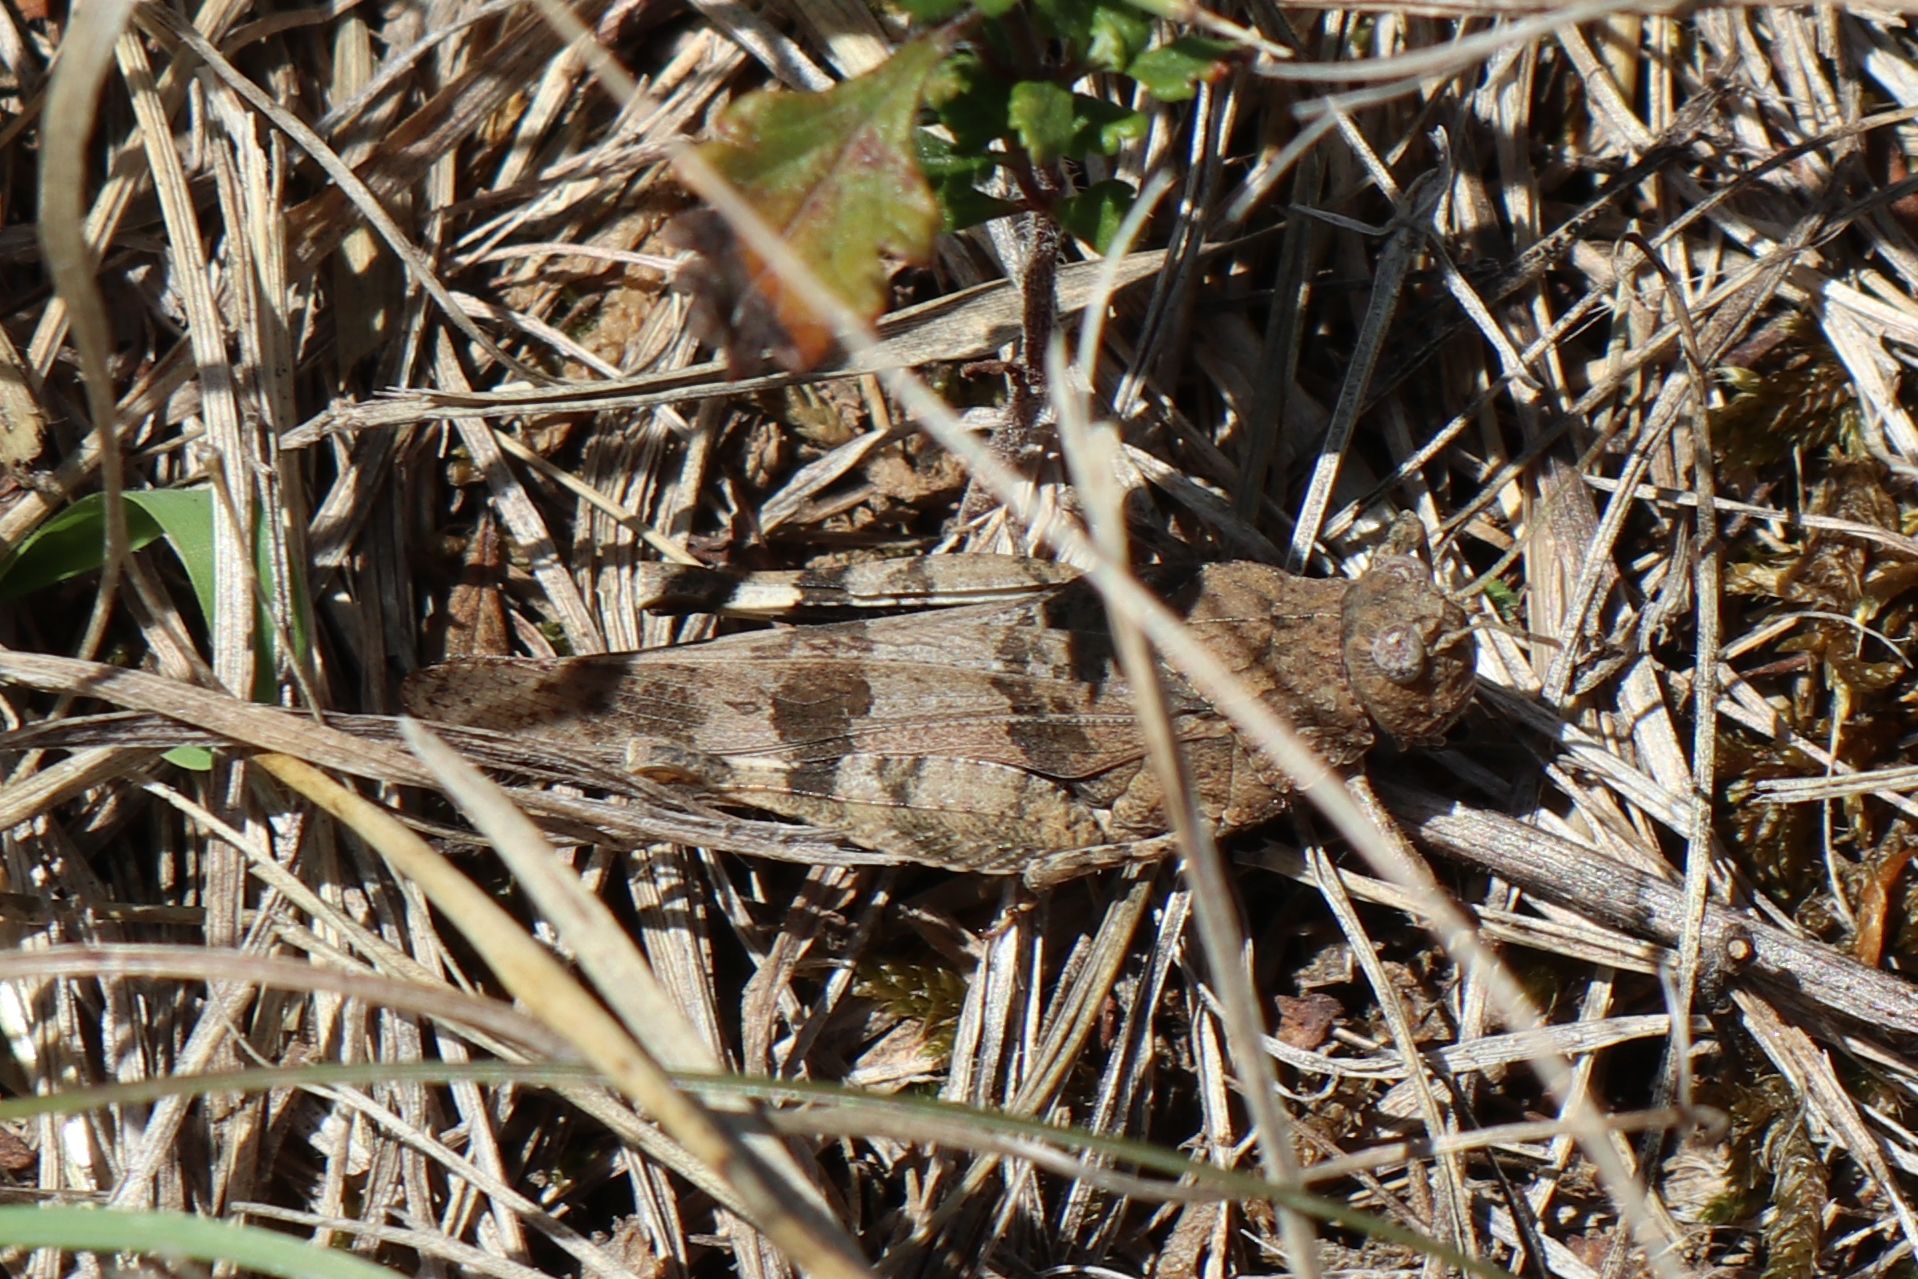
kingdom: Animalia
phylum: Arthropoda
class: Insecta
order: Orthoptera
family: Acrididae
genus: Oedipoda
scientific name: Oedipoda caerulescens
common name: Blue-winged grasshopper
